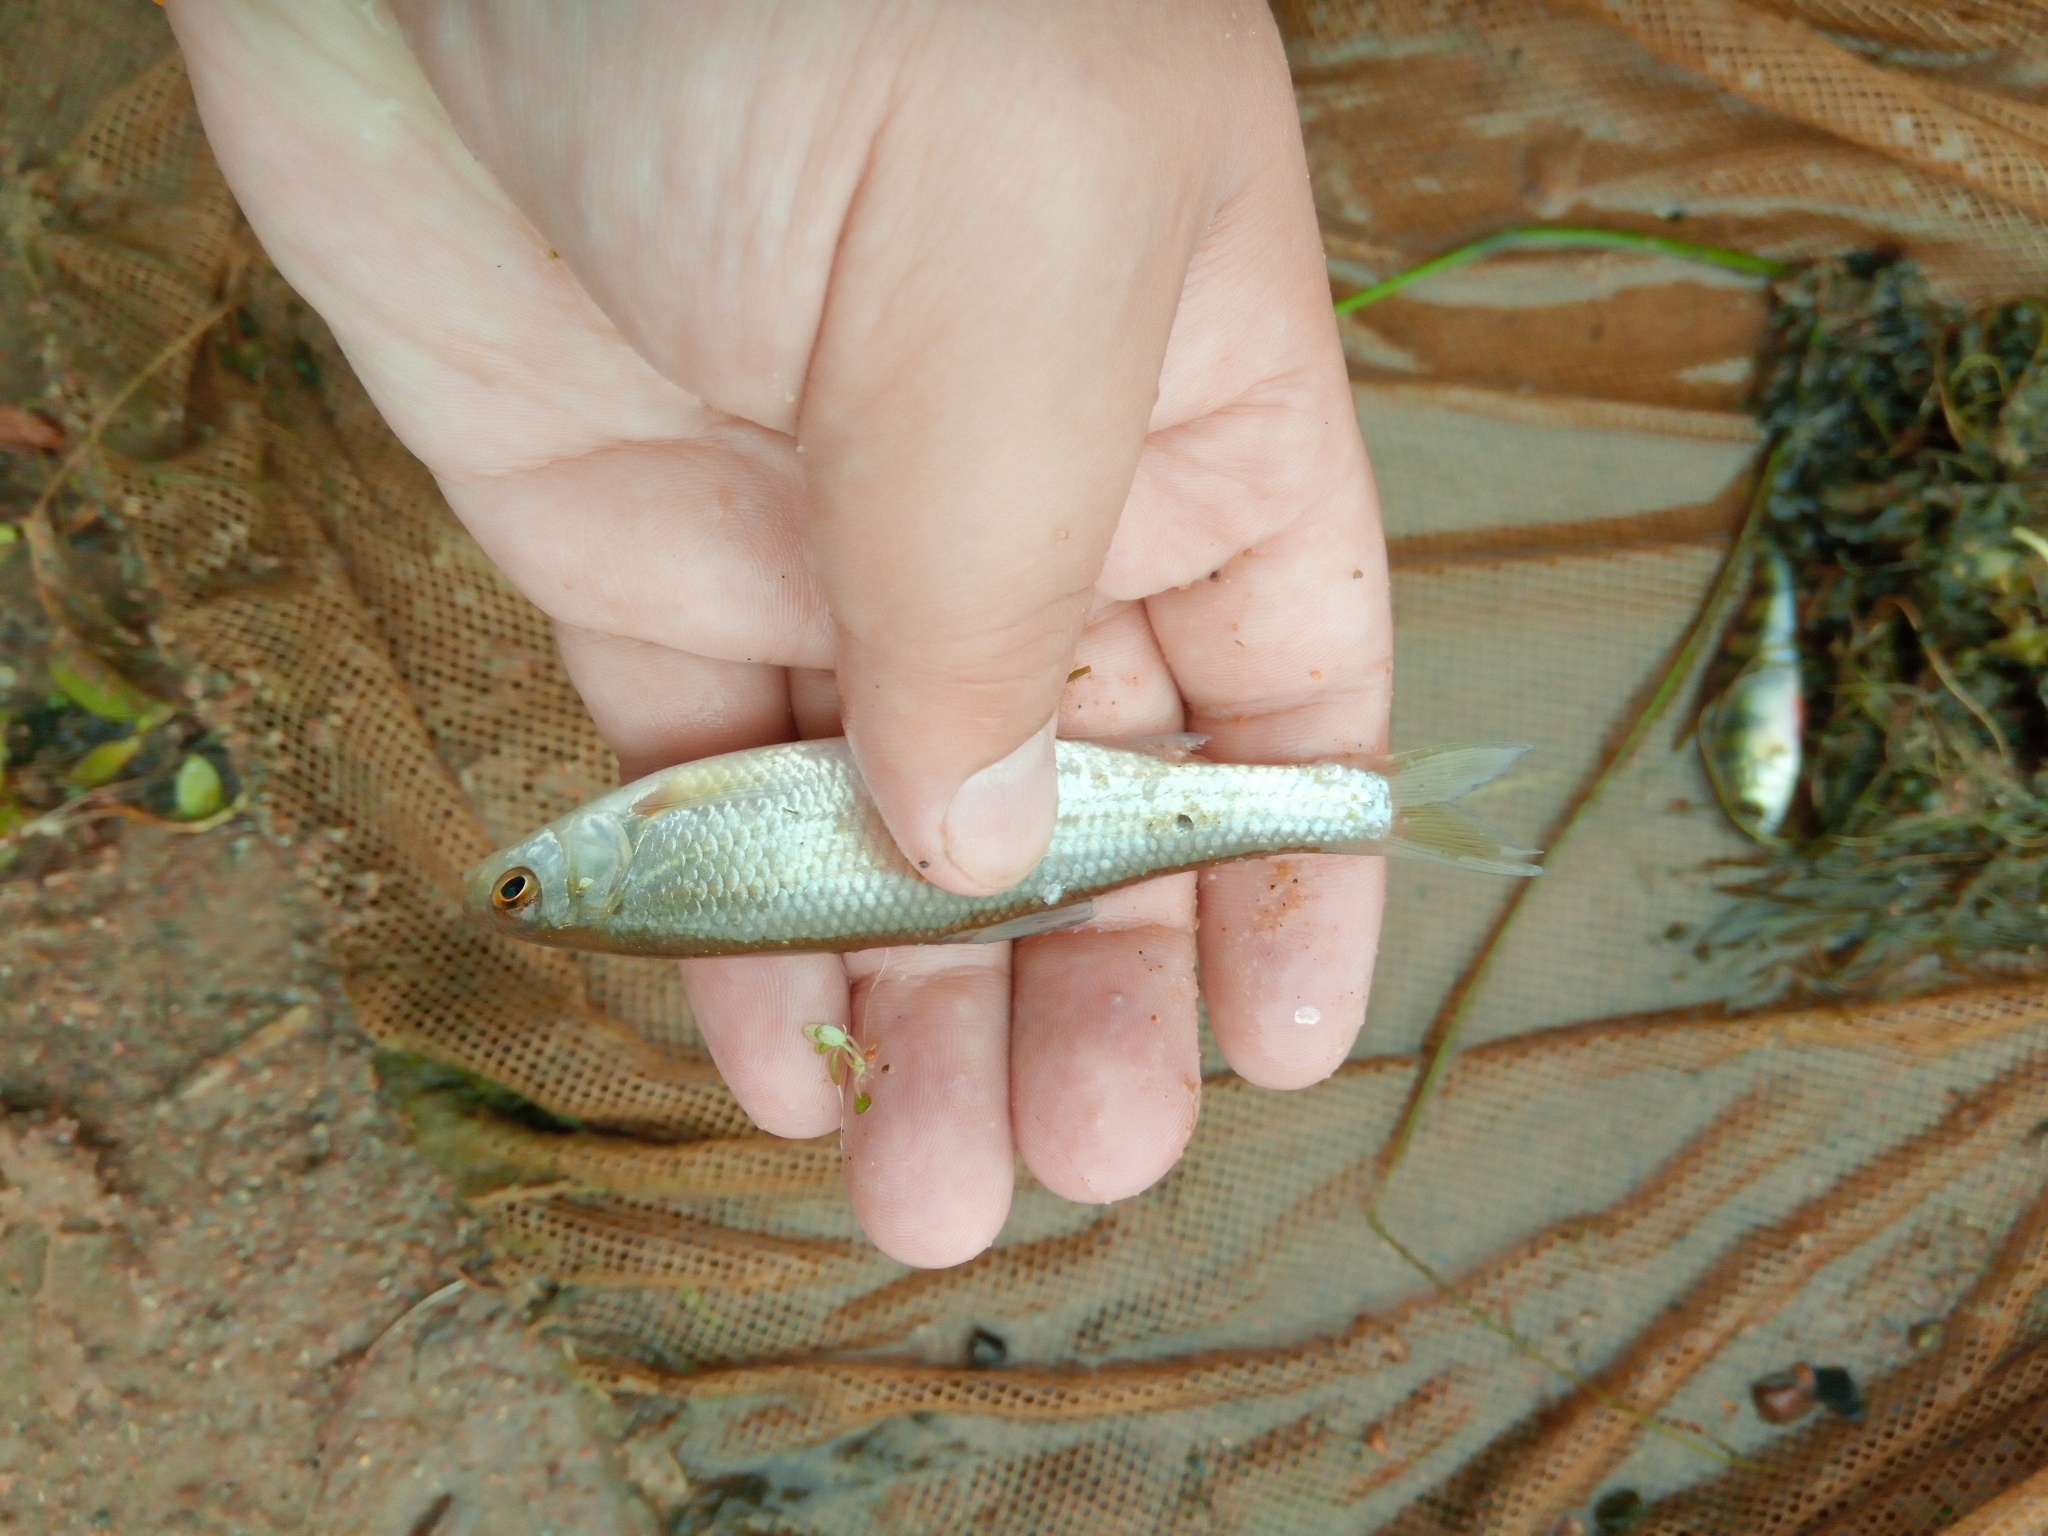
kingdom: Animalia
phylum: Chordata
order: Cypriniformes
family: Cyprinidae
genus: Leuciscus
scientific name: Leuciscus leuciscus
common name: Dace
